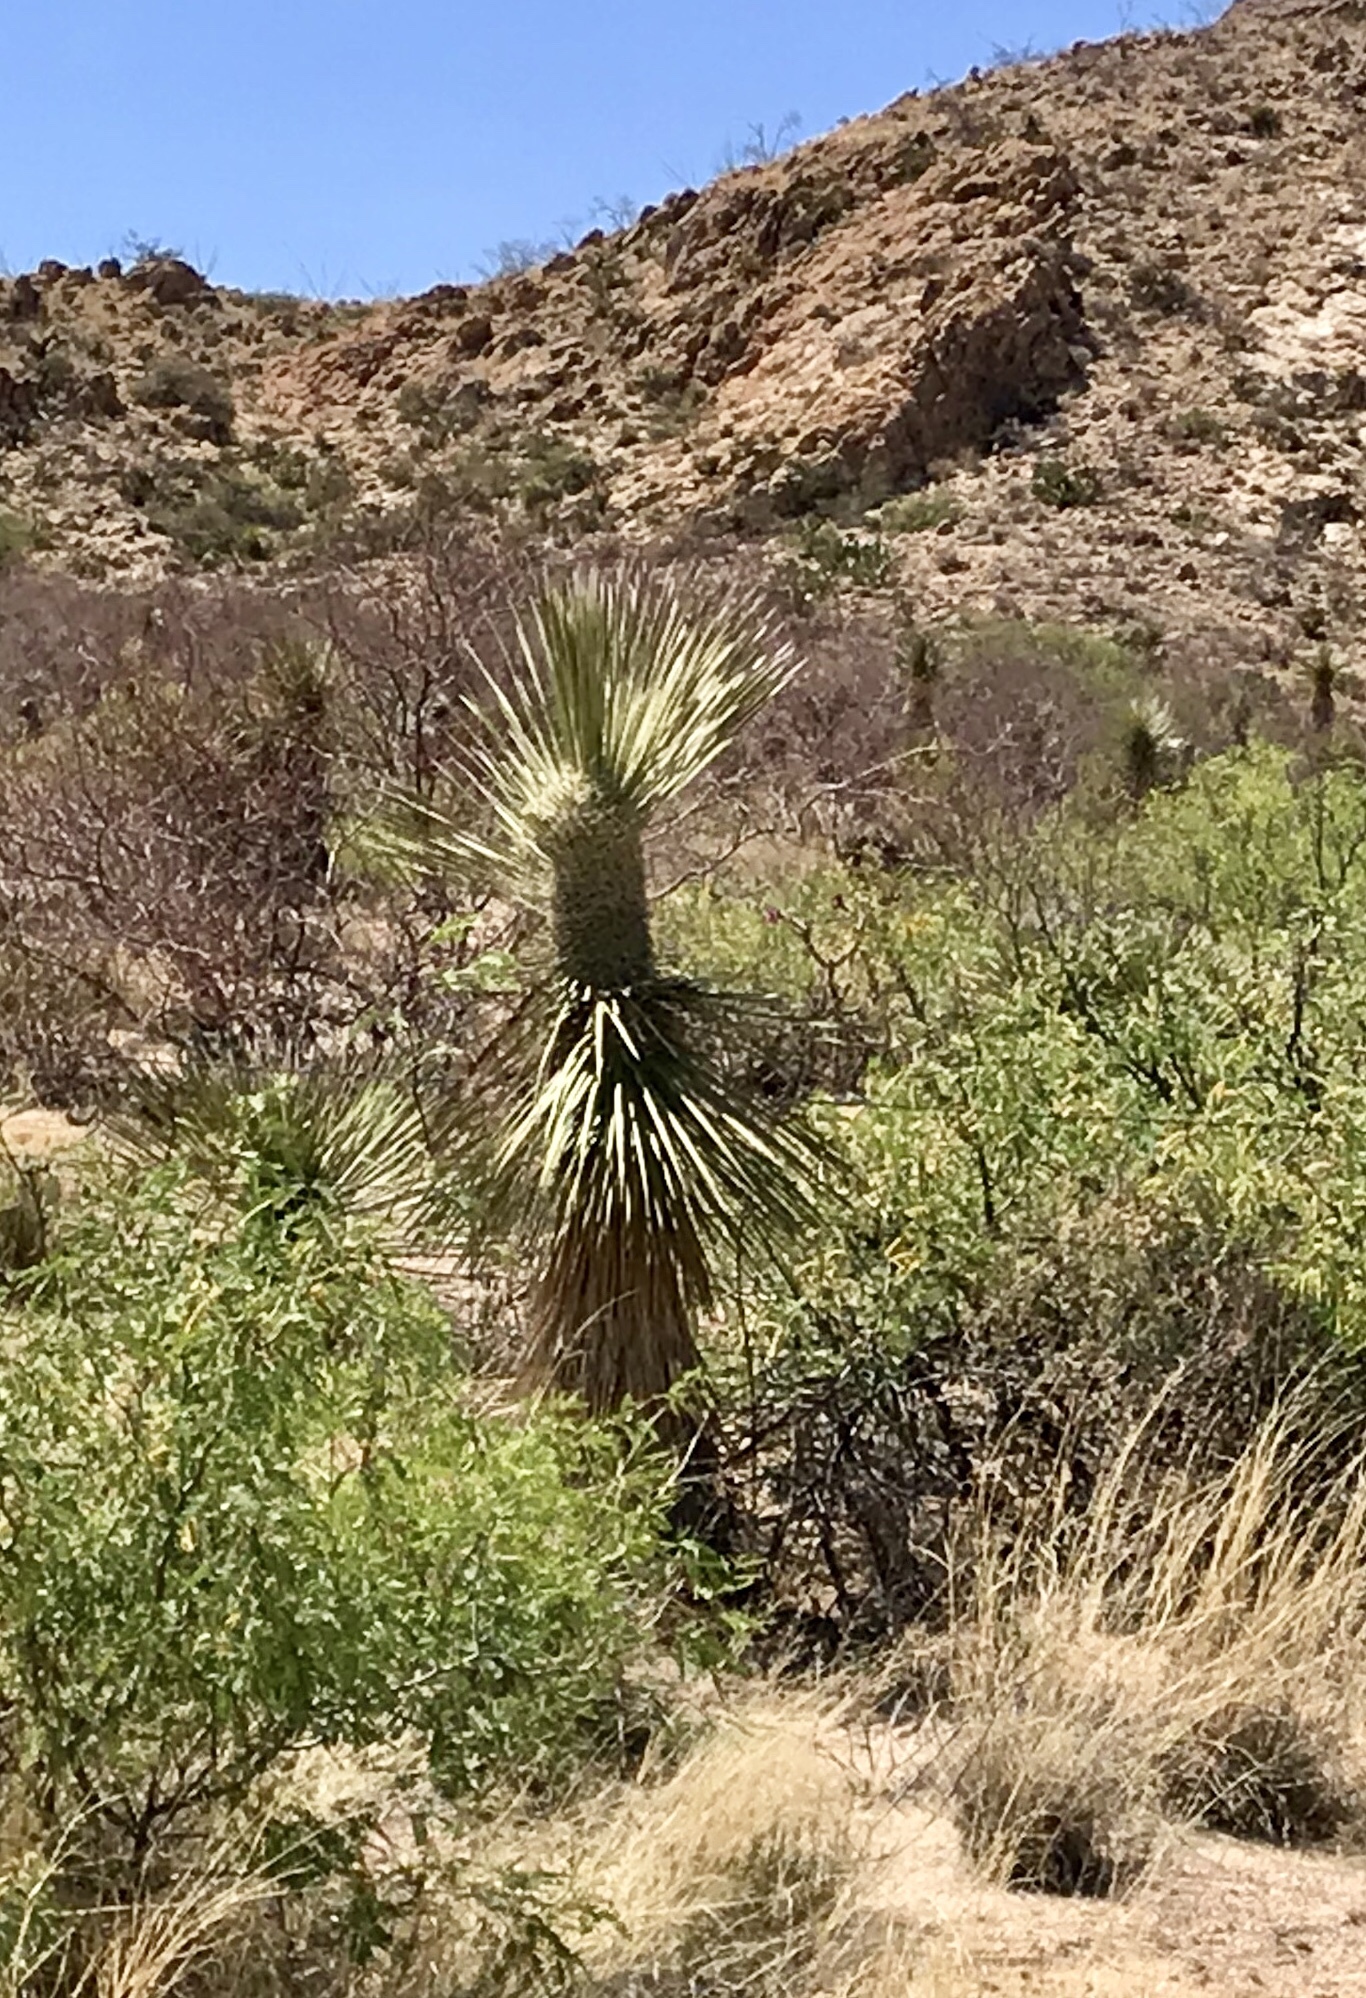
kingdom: Plantae
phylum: Tracheophyta
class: Liliopsida
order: Asparagales
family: Asparagaceae
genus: Yucca
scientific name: Yucca elata
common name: Palmella
